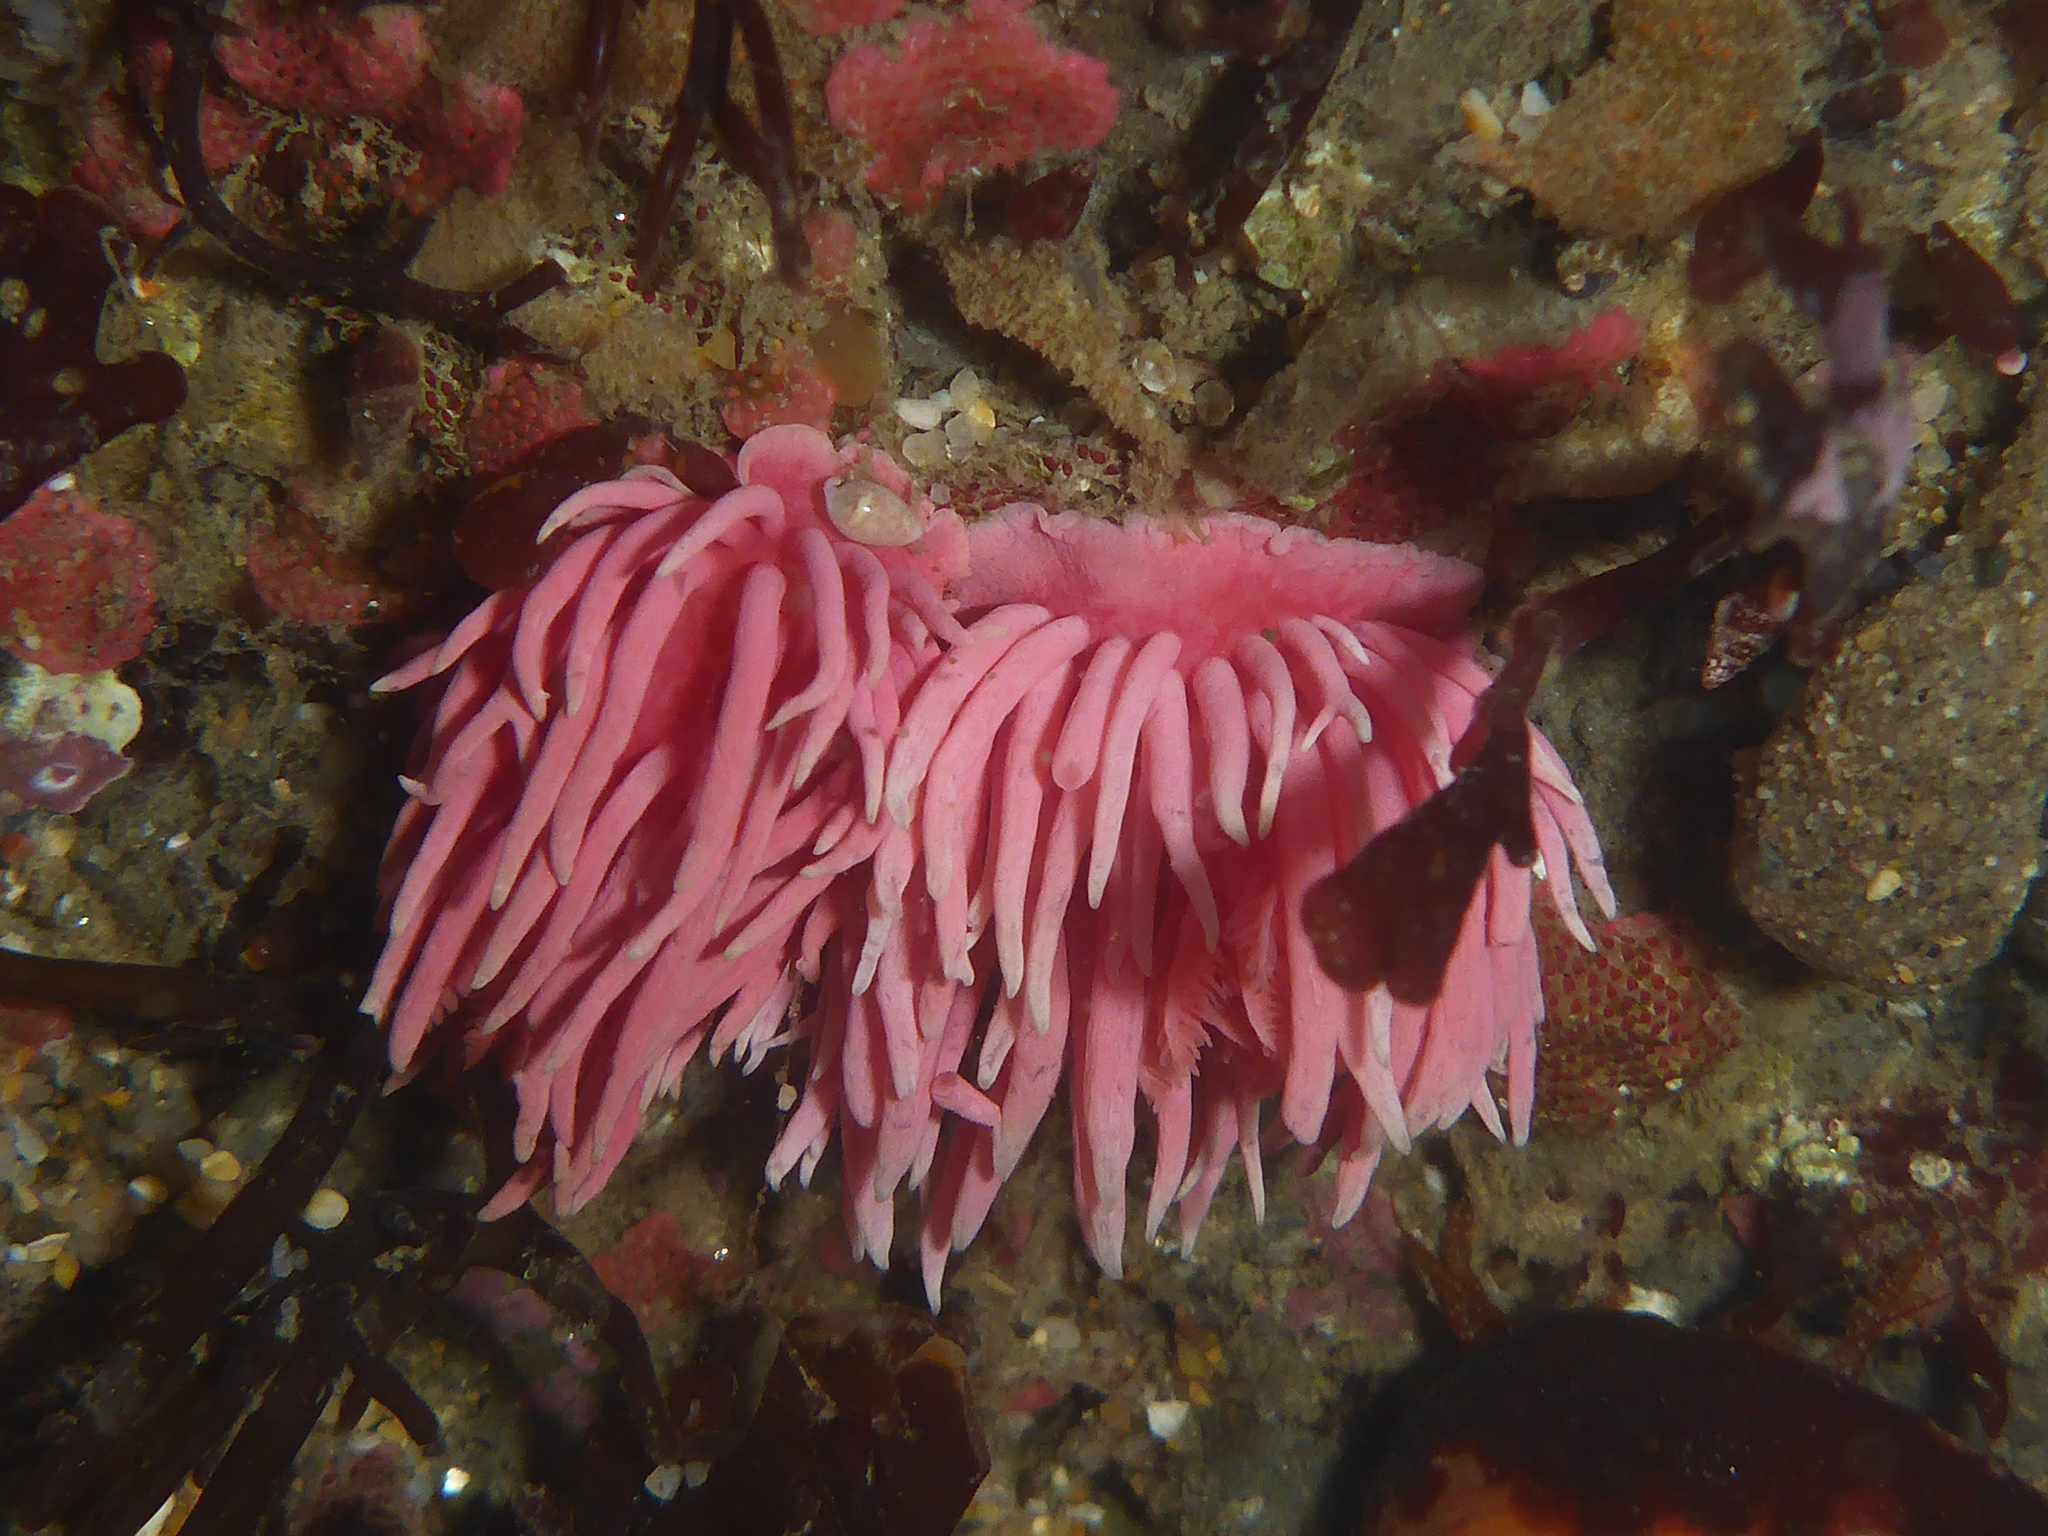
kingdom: Animalia
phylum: Mollusca
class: Gastropoda
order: Nudibranchia
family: Goniodorididae
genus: Okenia
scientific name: Okenia
